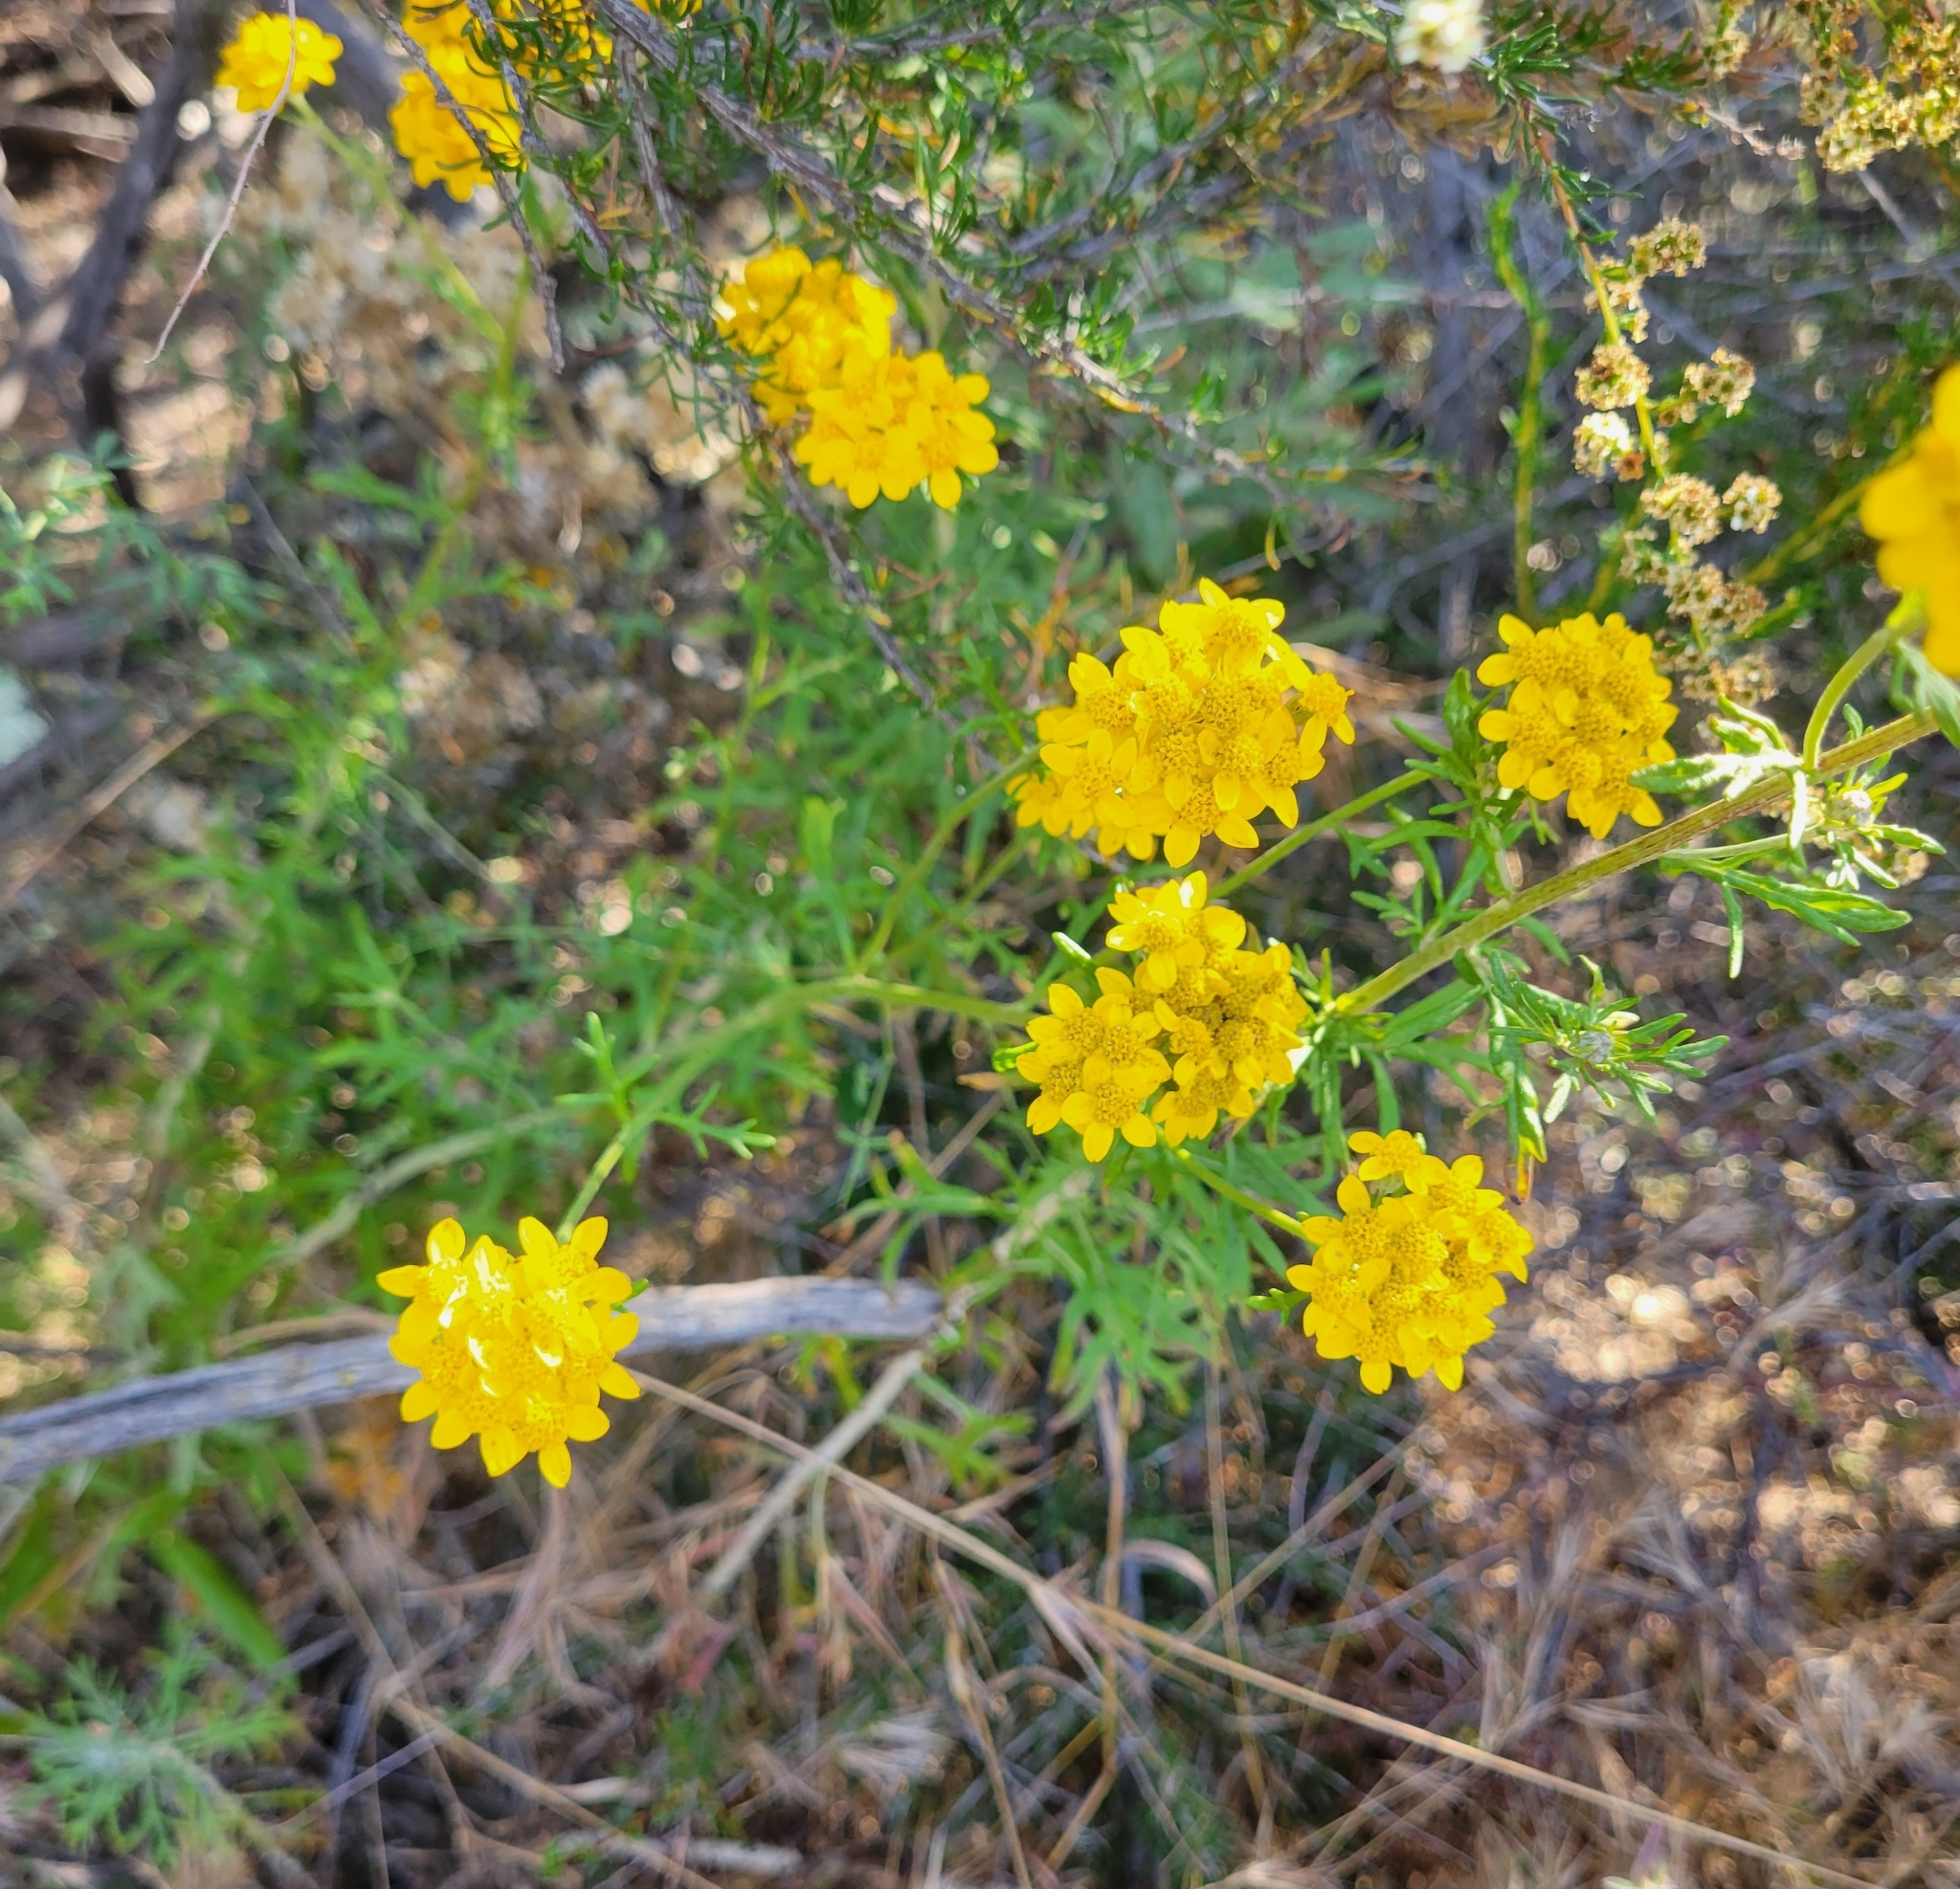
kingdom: Plantae
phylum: Tracheophyta
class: Magnoliopsida
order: Asterales
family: Asteraceae
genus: Eriophyllum
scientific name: Eriophyllum confertiflorum
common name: Golden-yarrow
